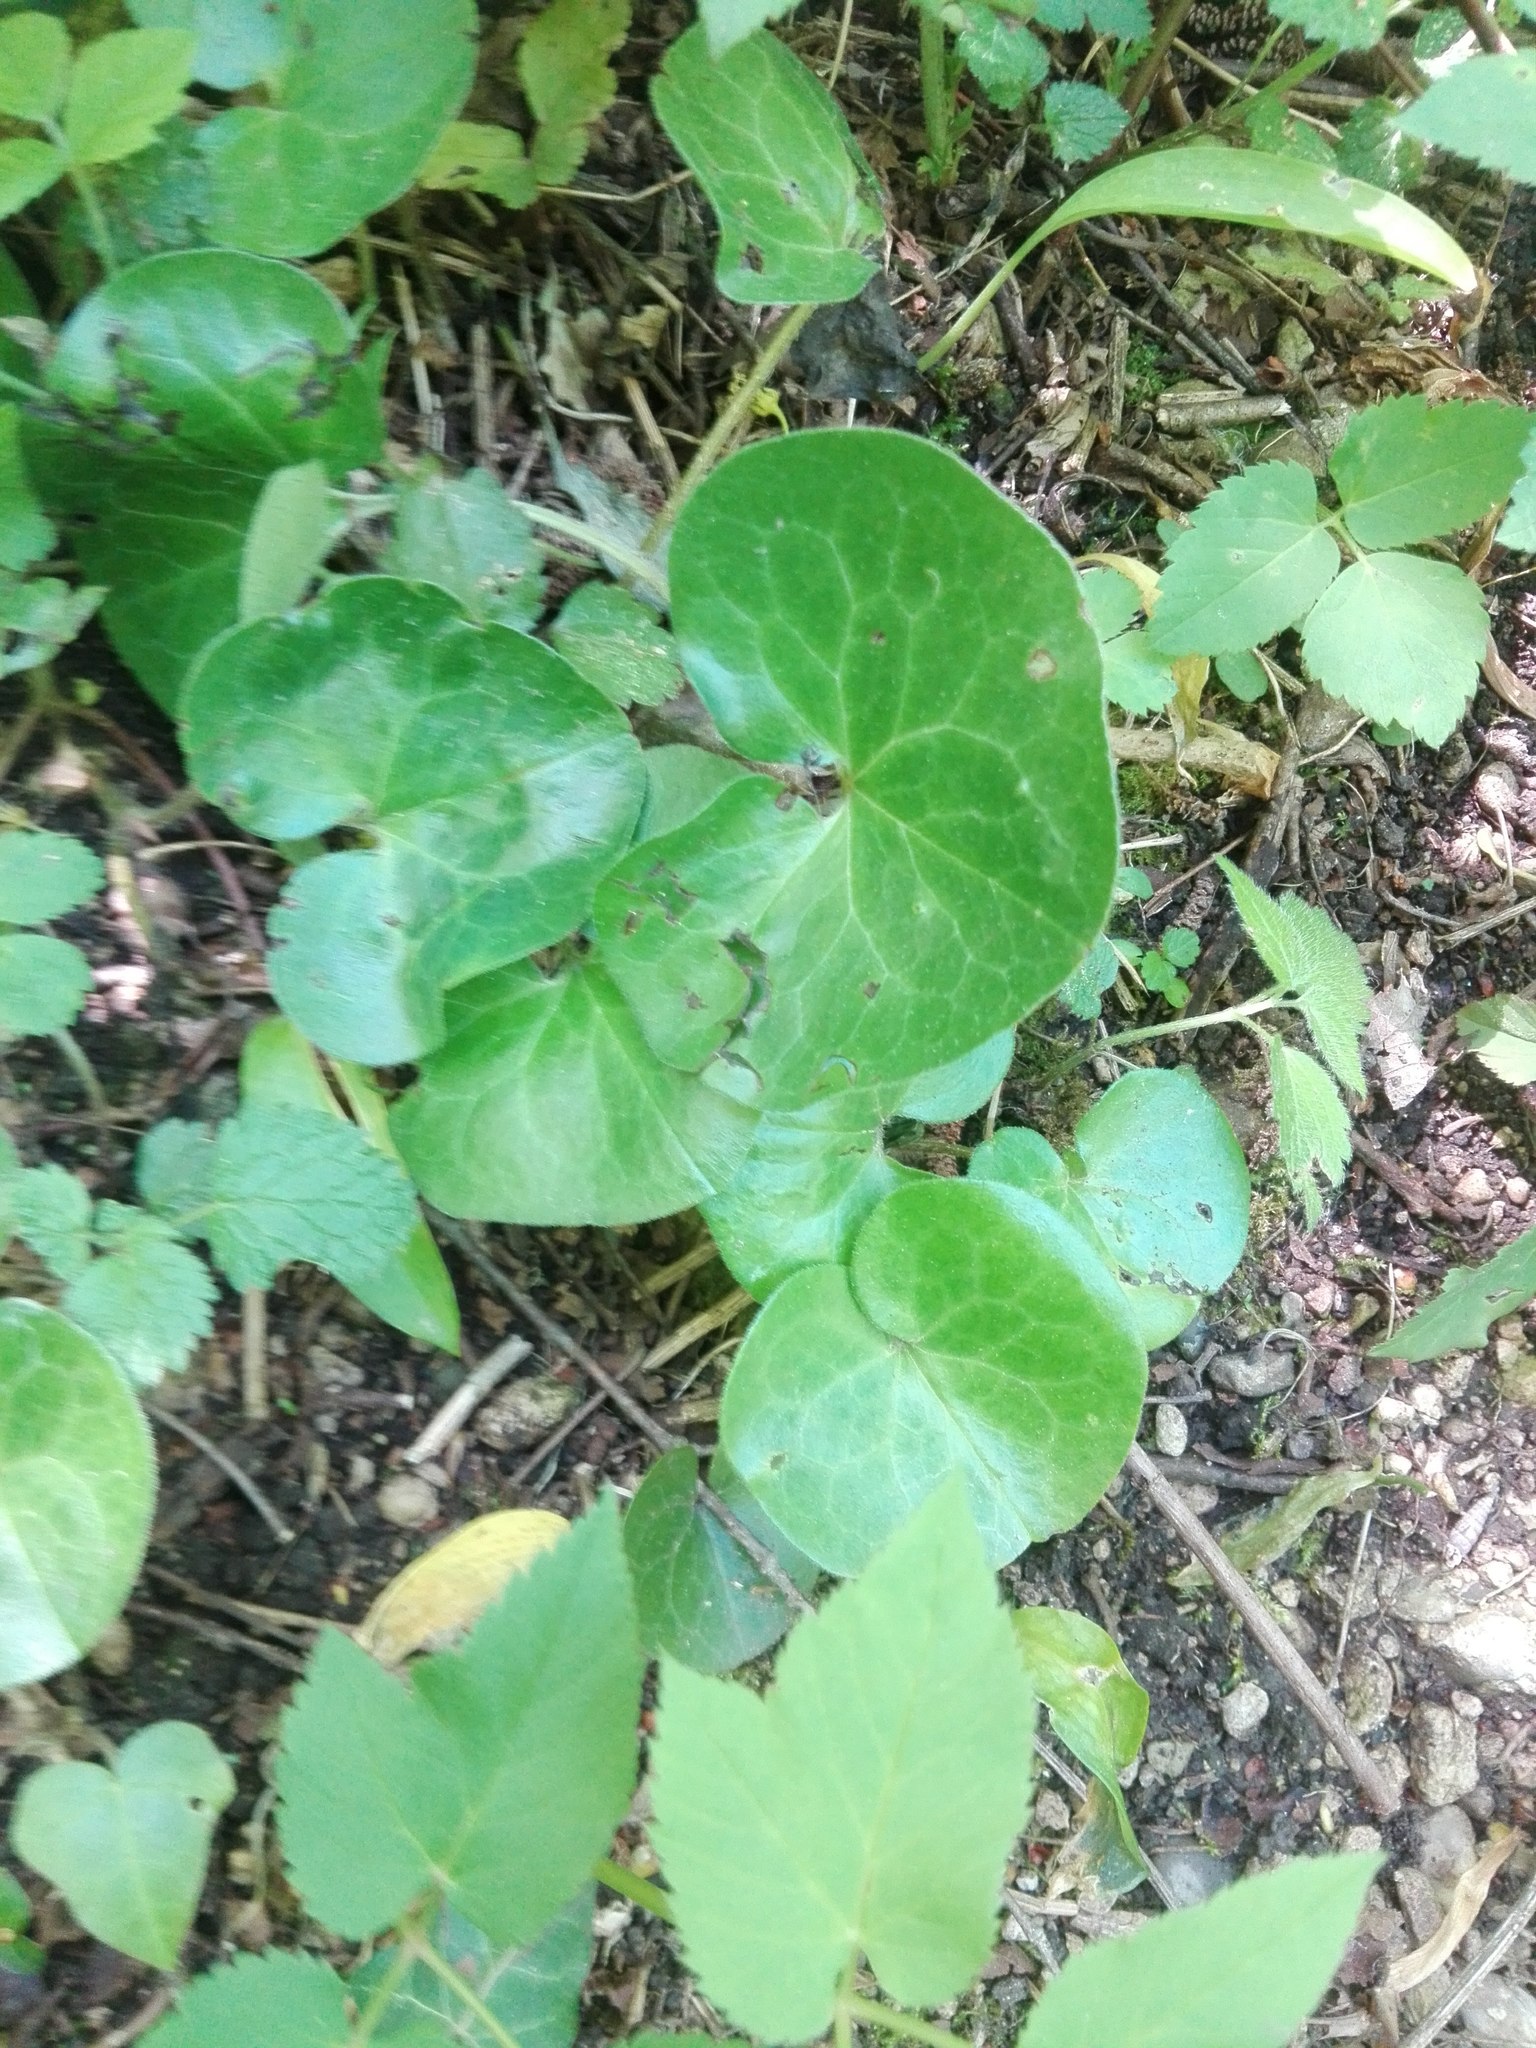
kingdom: Plantae
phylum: Tracheophyta
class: Magnoliopsida
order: Piperales
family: Aristolochiaceae
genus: Asarum
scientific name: Asarum europaeum
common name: Asarabacca
